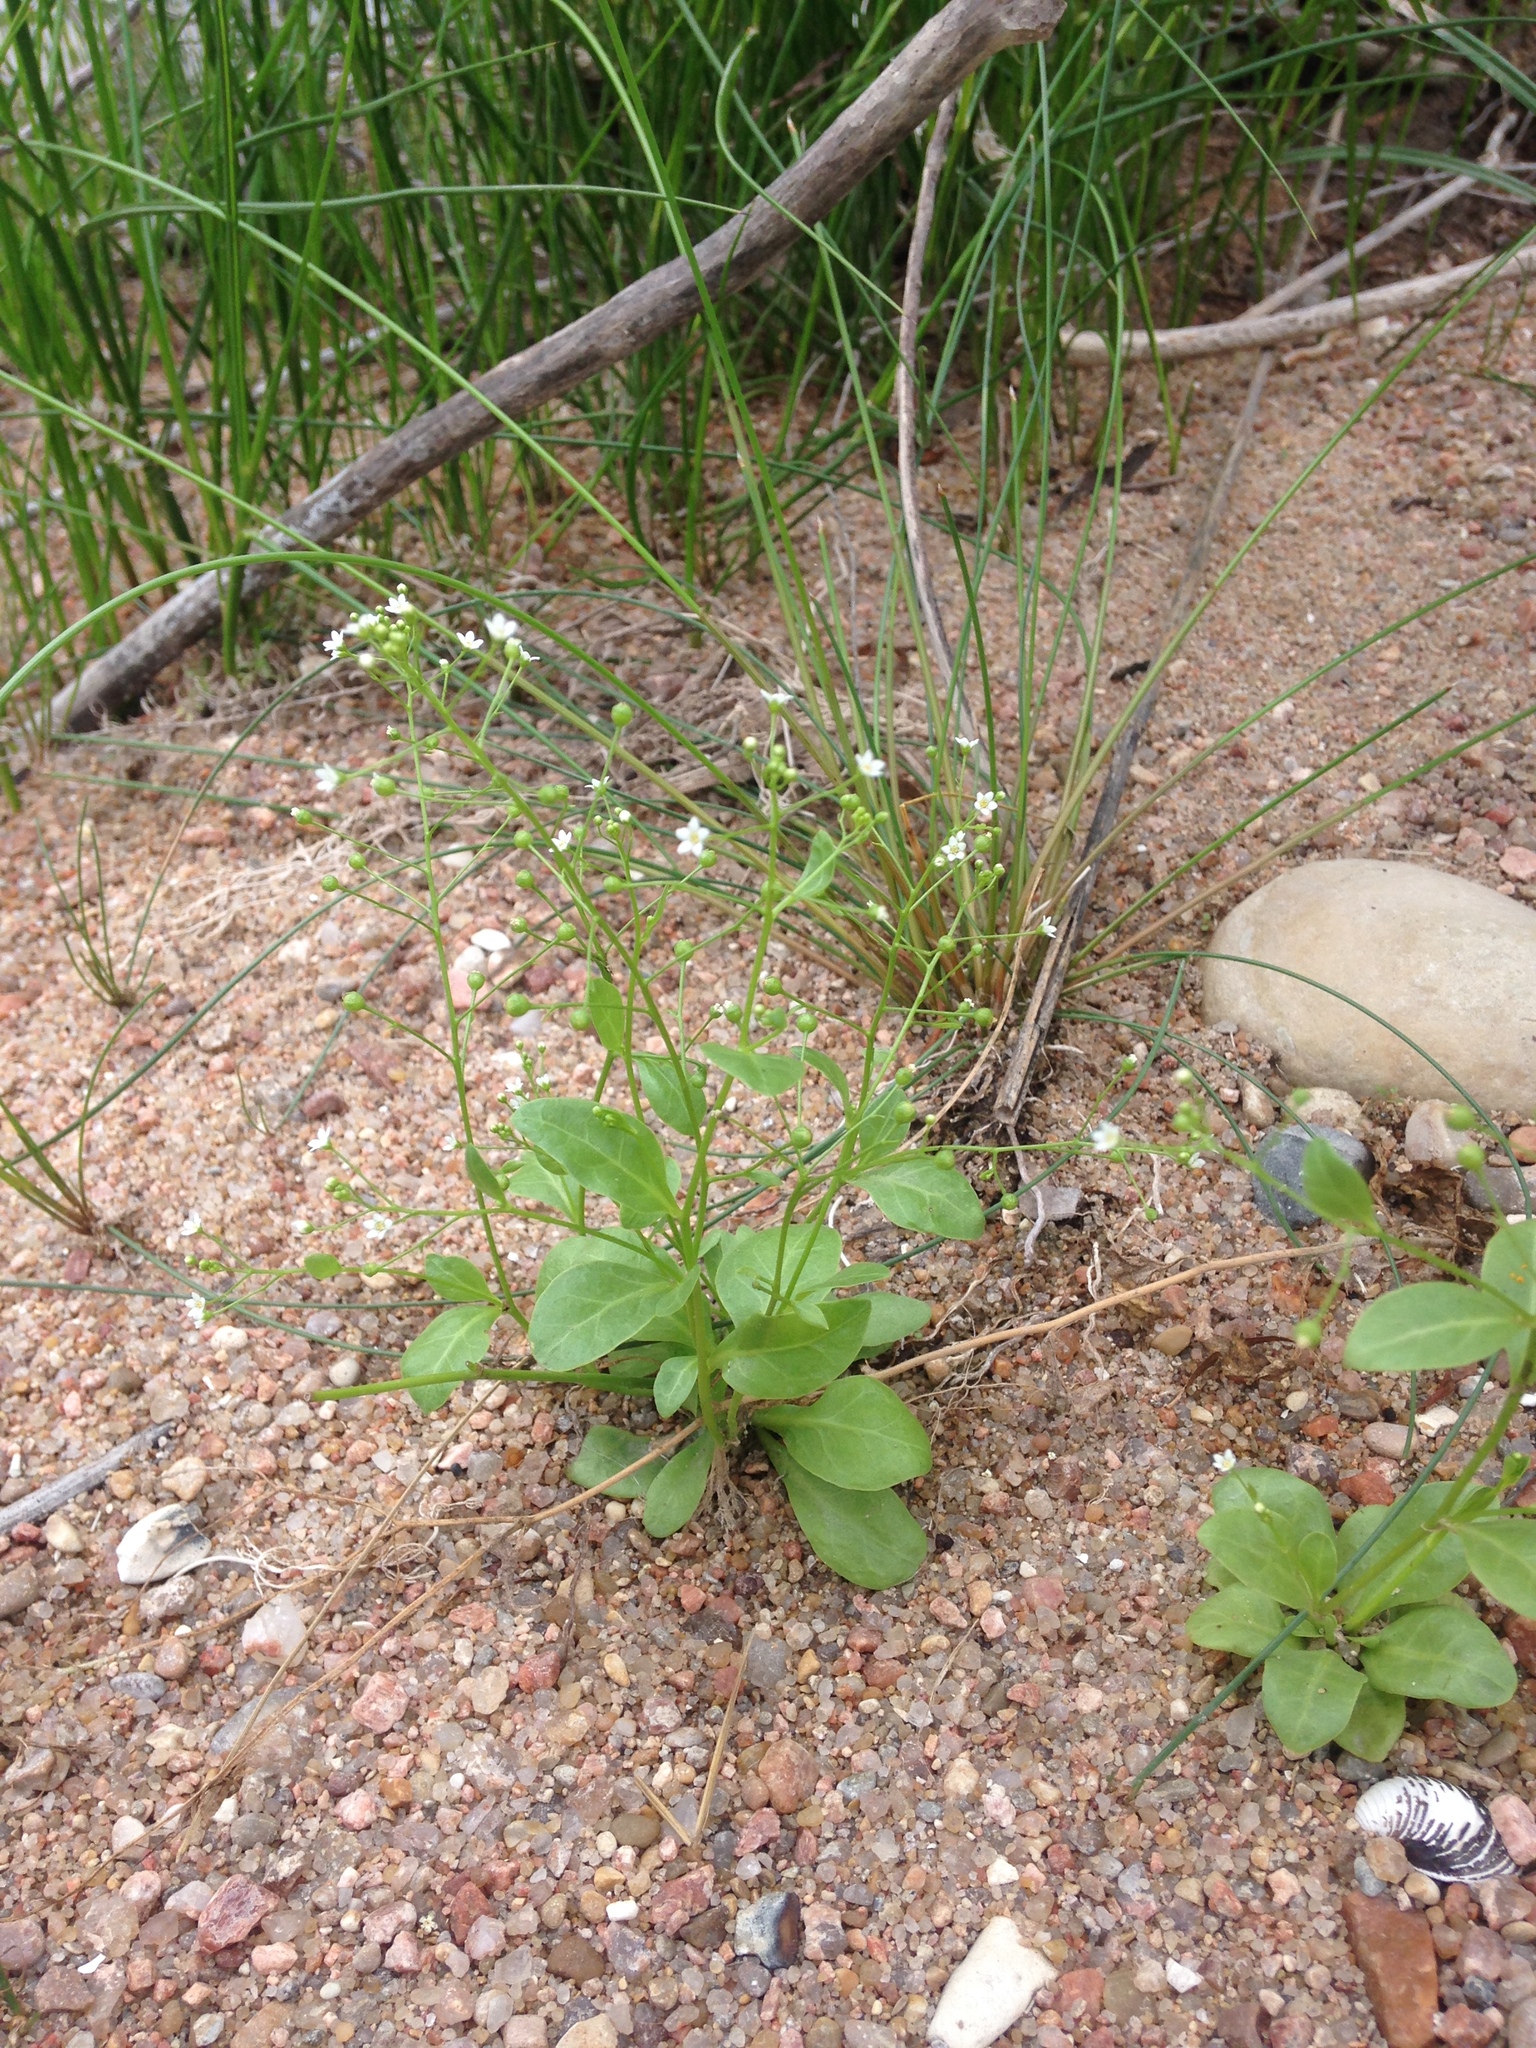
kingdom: Plantae
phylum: Tracheophyta
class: Magnoliopsida
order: Ericales
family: Primulaceae
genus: Samolus
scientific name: Samolus parviflorus
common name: False water pimpernel
